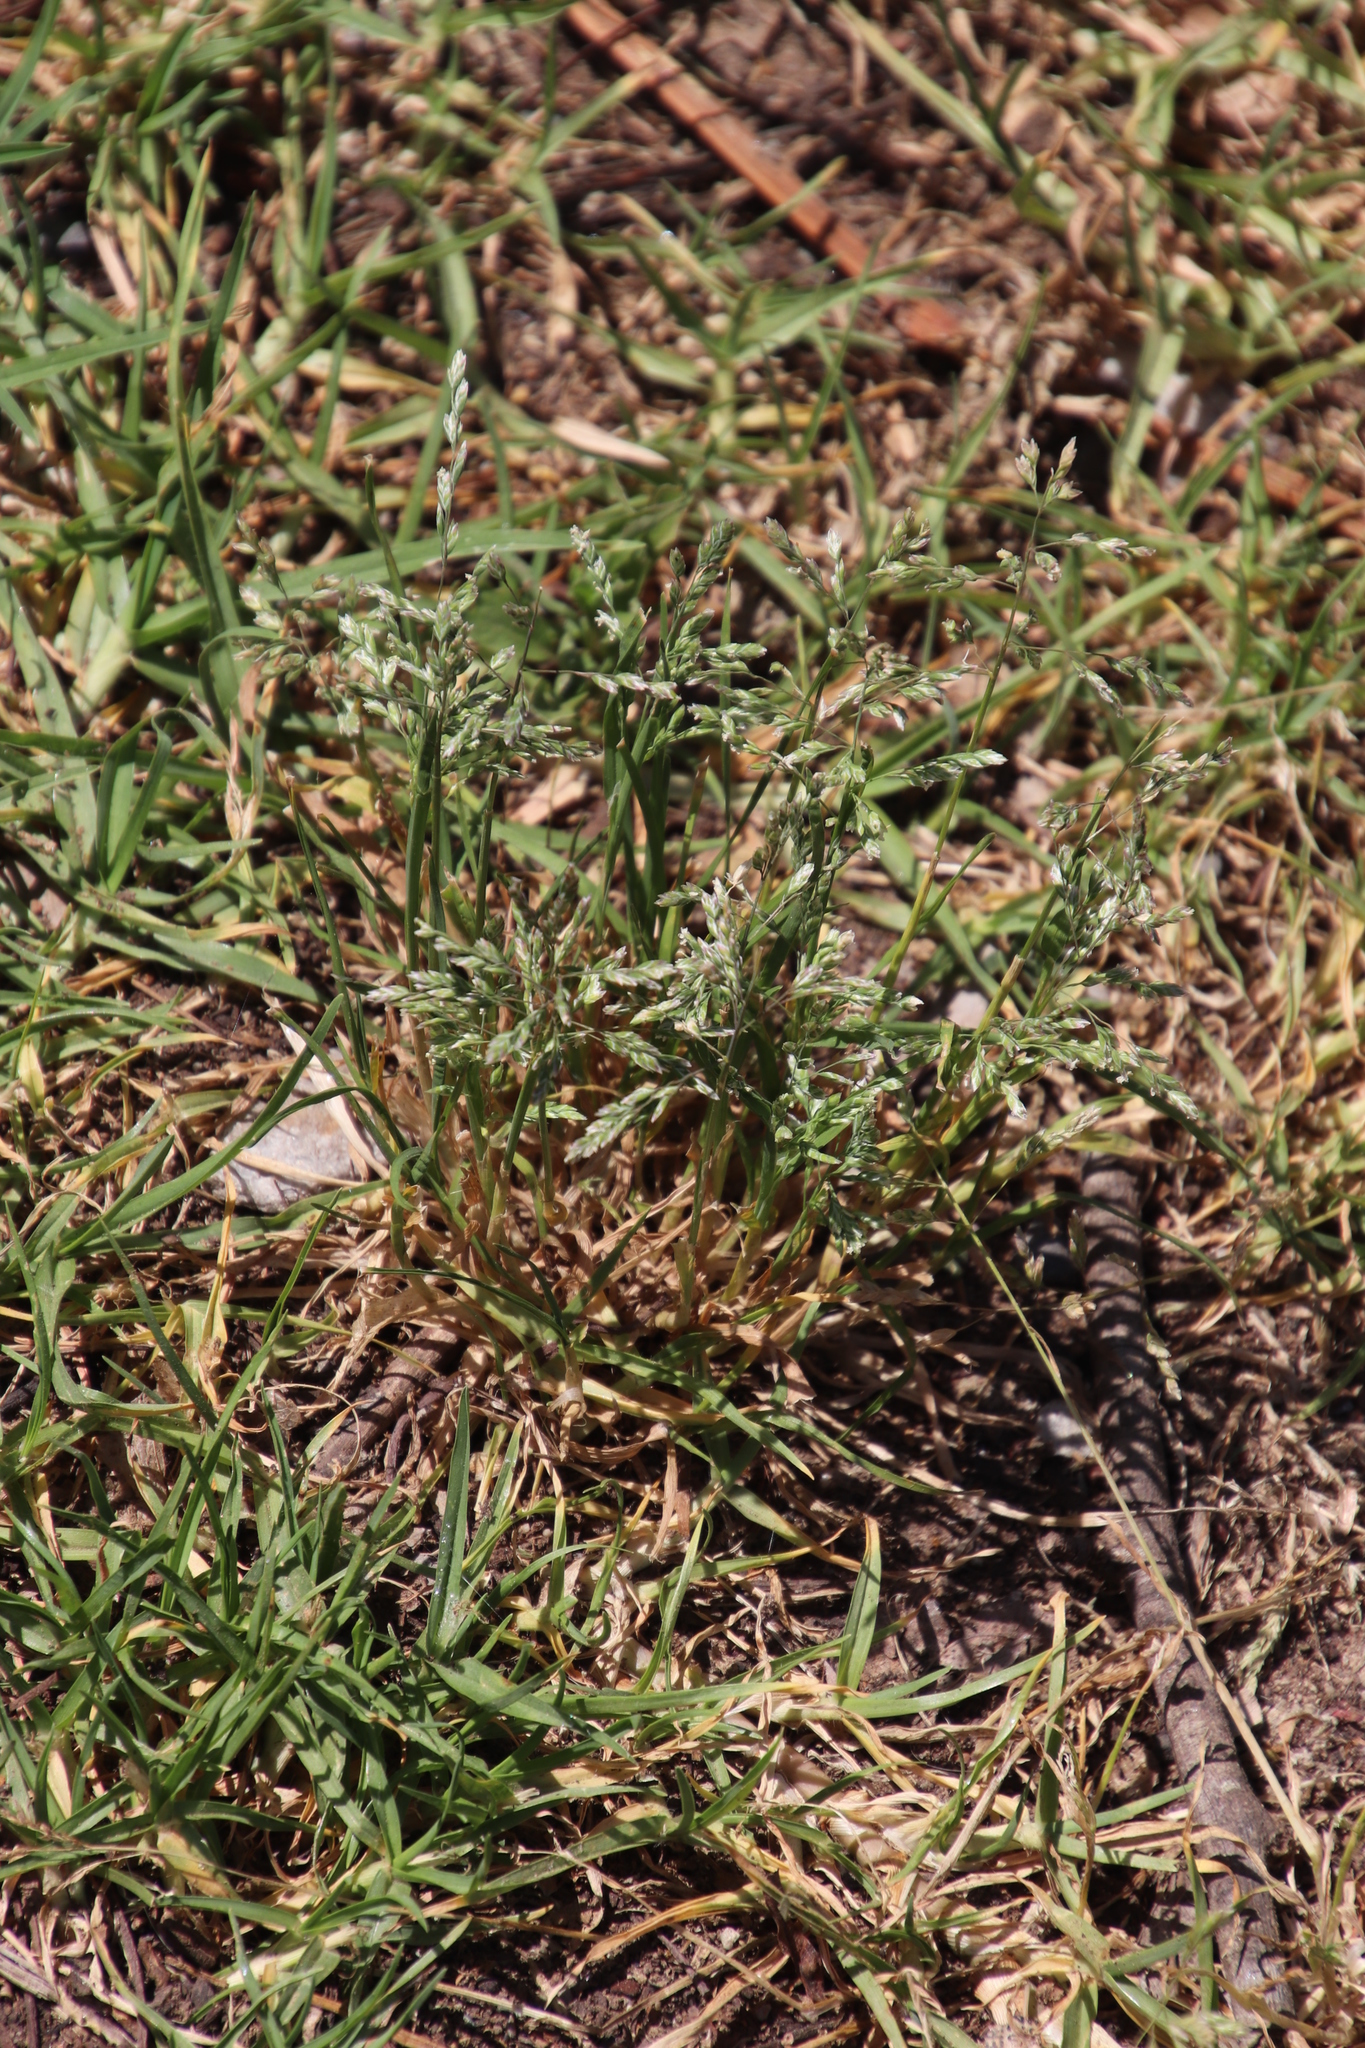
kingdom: Plantae
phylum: Tracheophyta
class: Liliopsida
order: Poales
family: Poaceae
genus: Poa
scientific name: Poa annua
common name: Annual bluegrass
